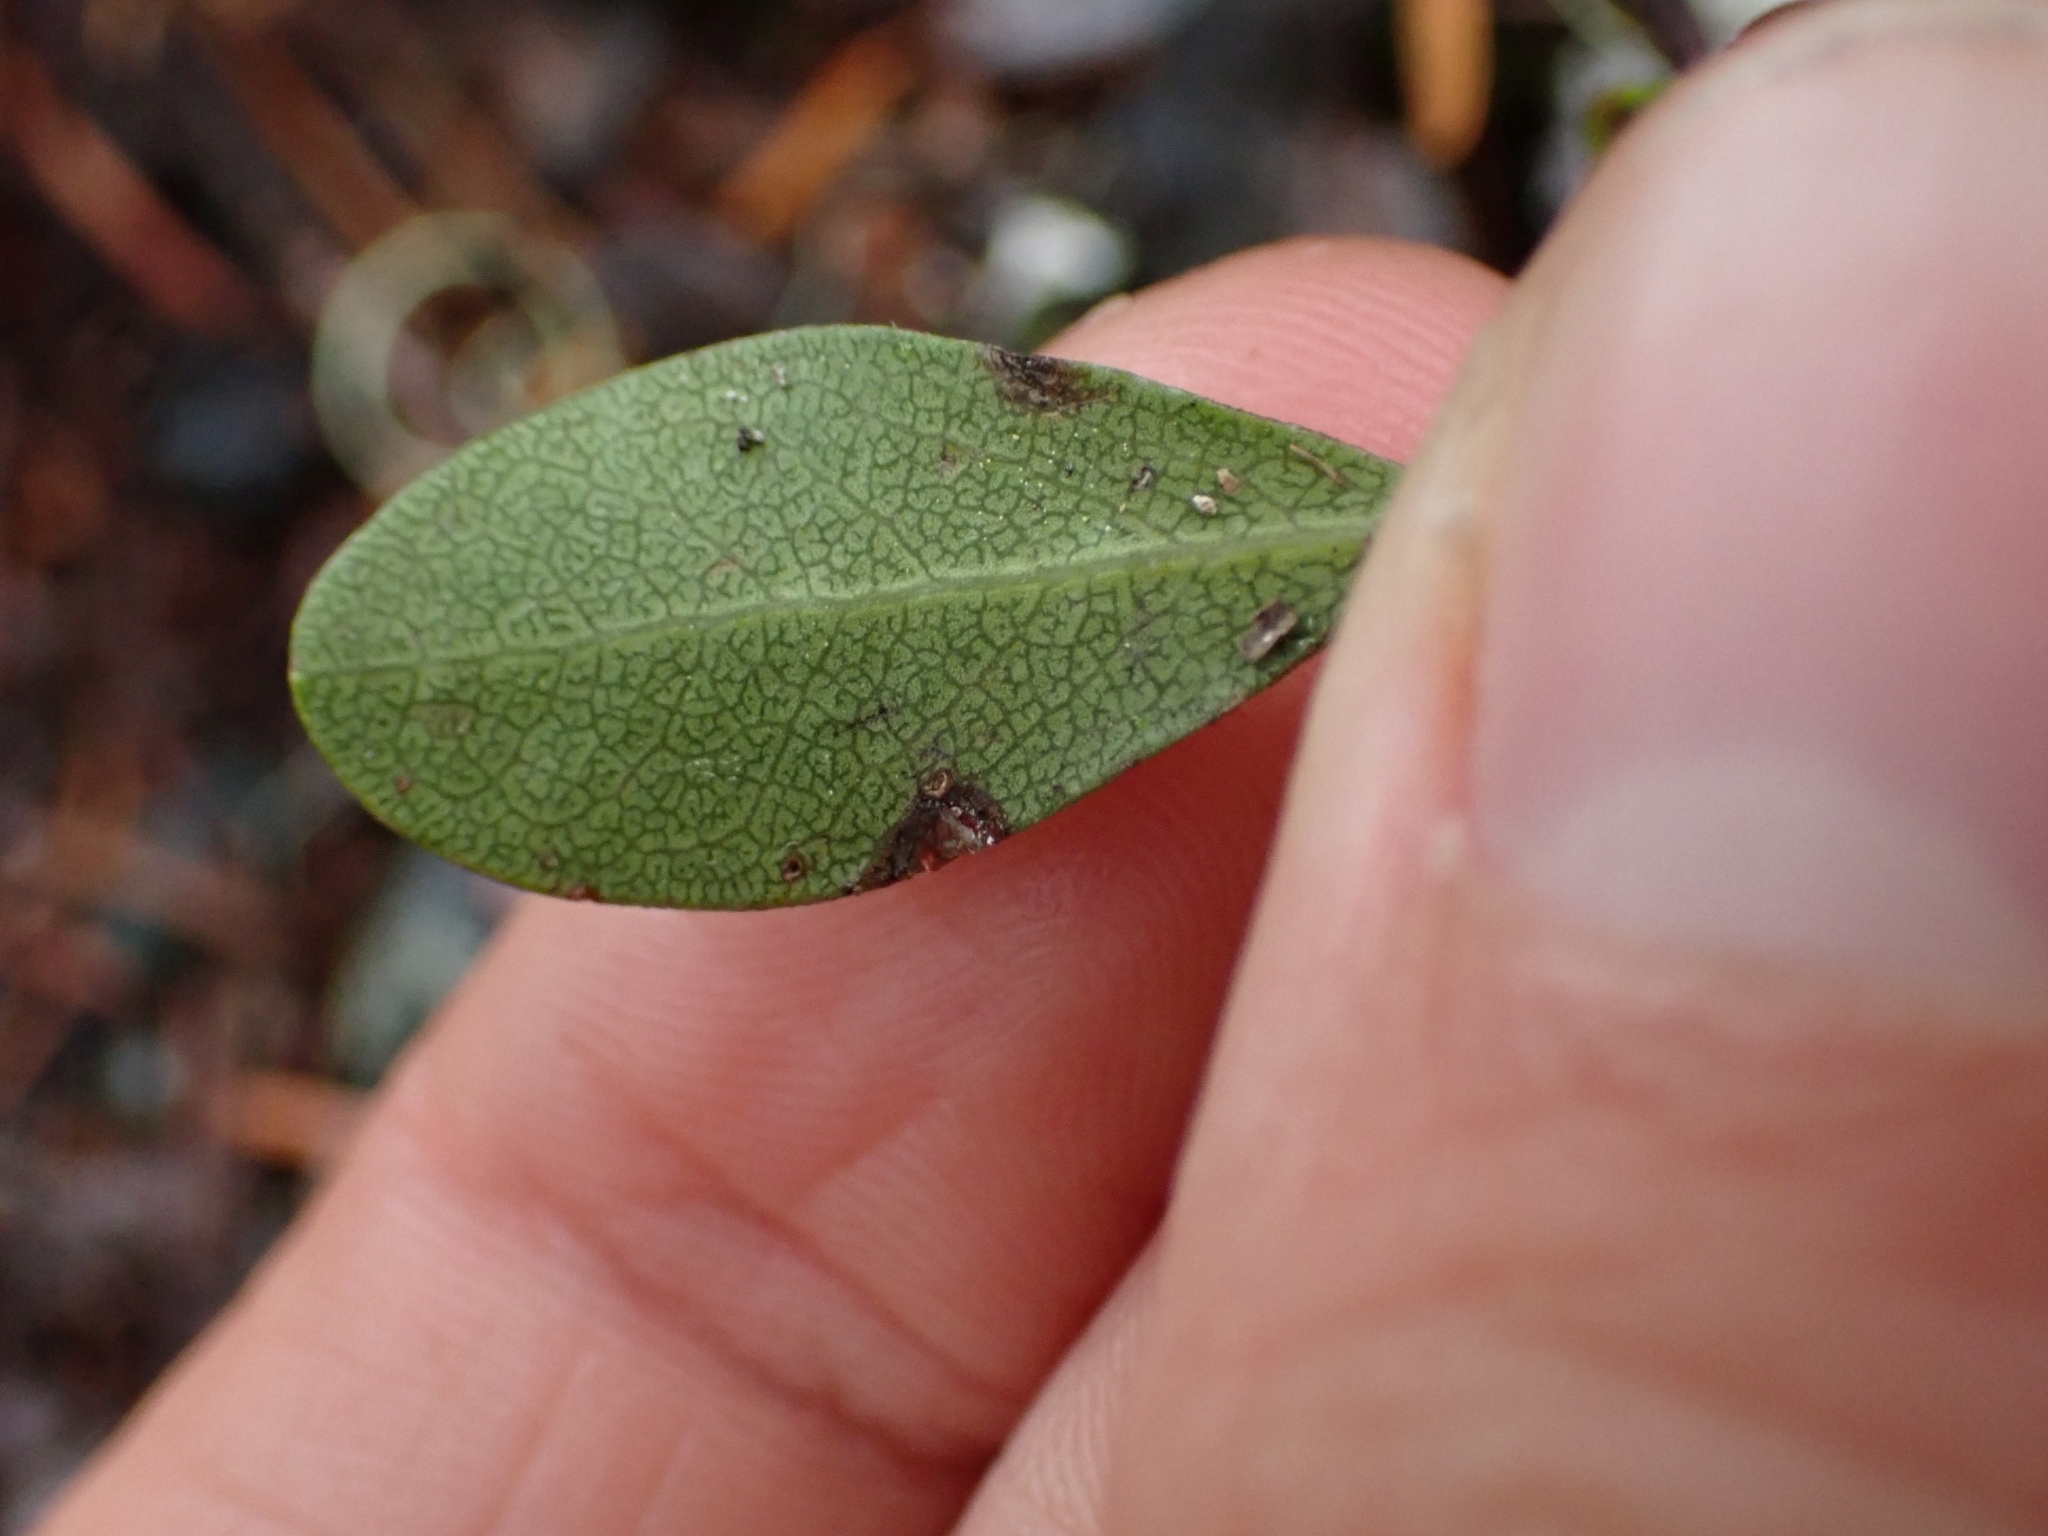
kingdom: Plantae
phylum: Tracheophyta
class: Magnoliopsida
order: Ericales
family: Ericaceae
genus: Arctostaphylos
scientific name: Arctostaphylos uva-ursi
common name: Bearberry
